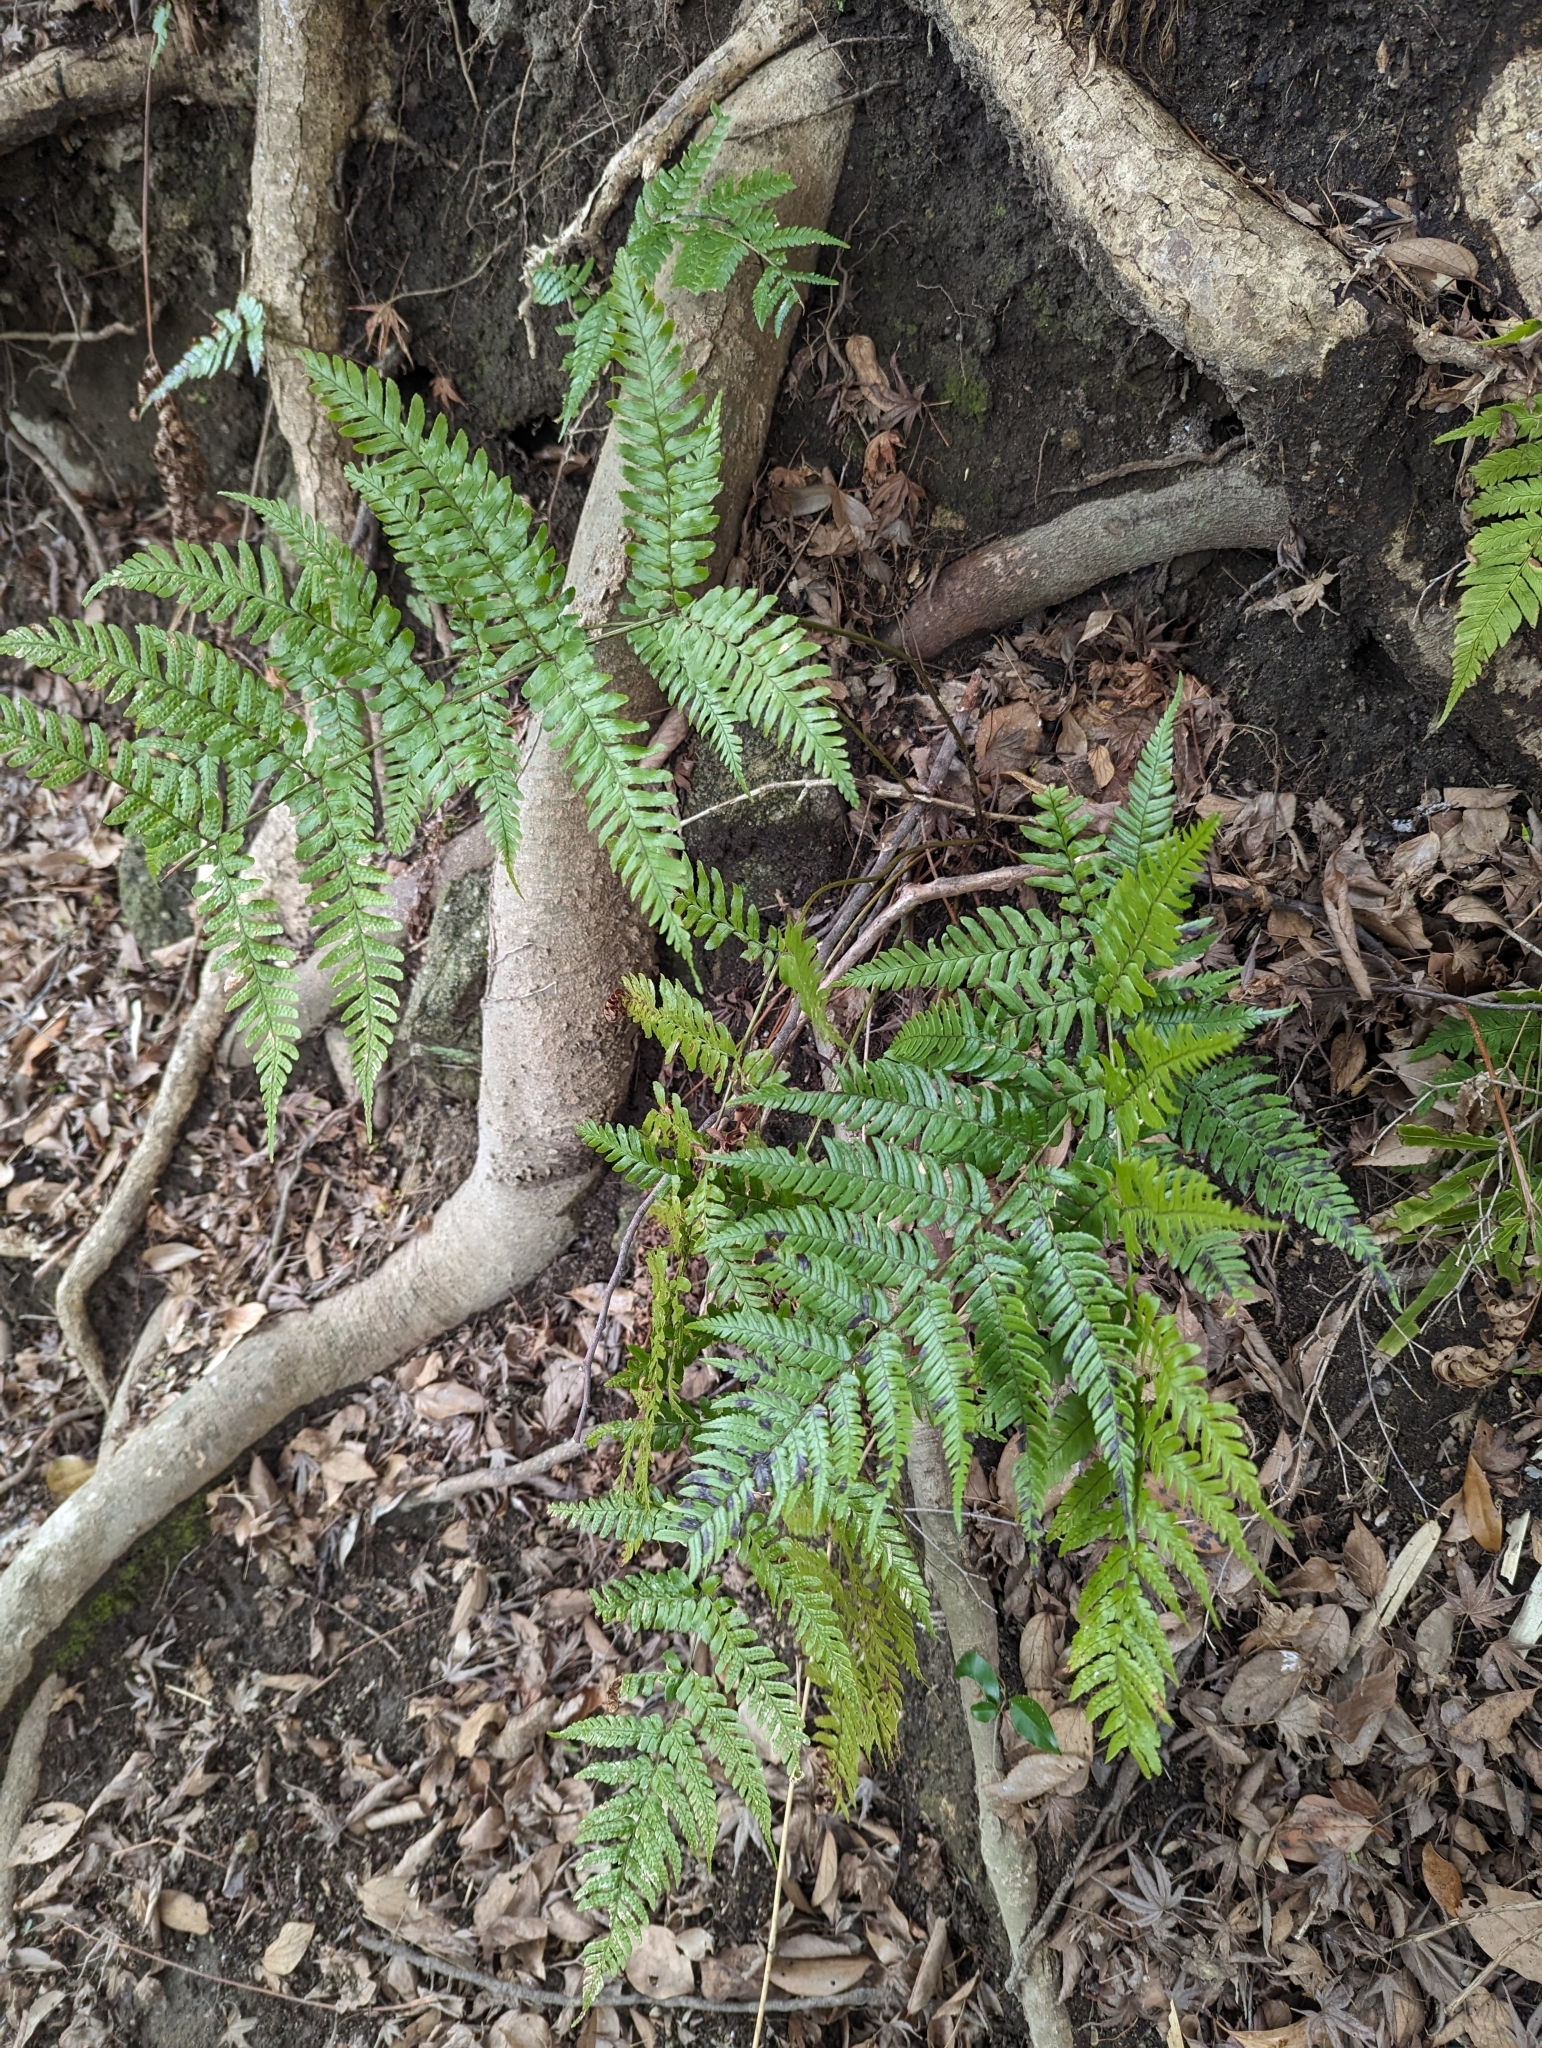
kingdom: Plantae
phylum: Tracheophyta
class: Polypodiopsida
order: Polypodiales
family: Dryopteridaceae
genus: Dryopteris
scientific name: Dryopteris erythrosora
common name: Autumn fern
